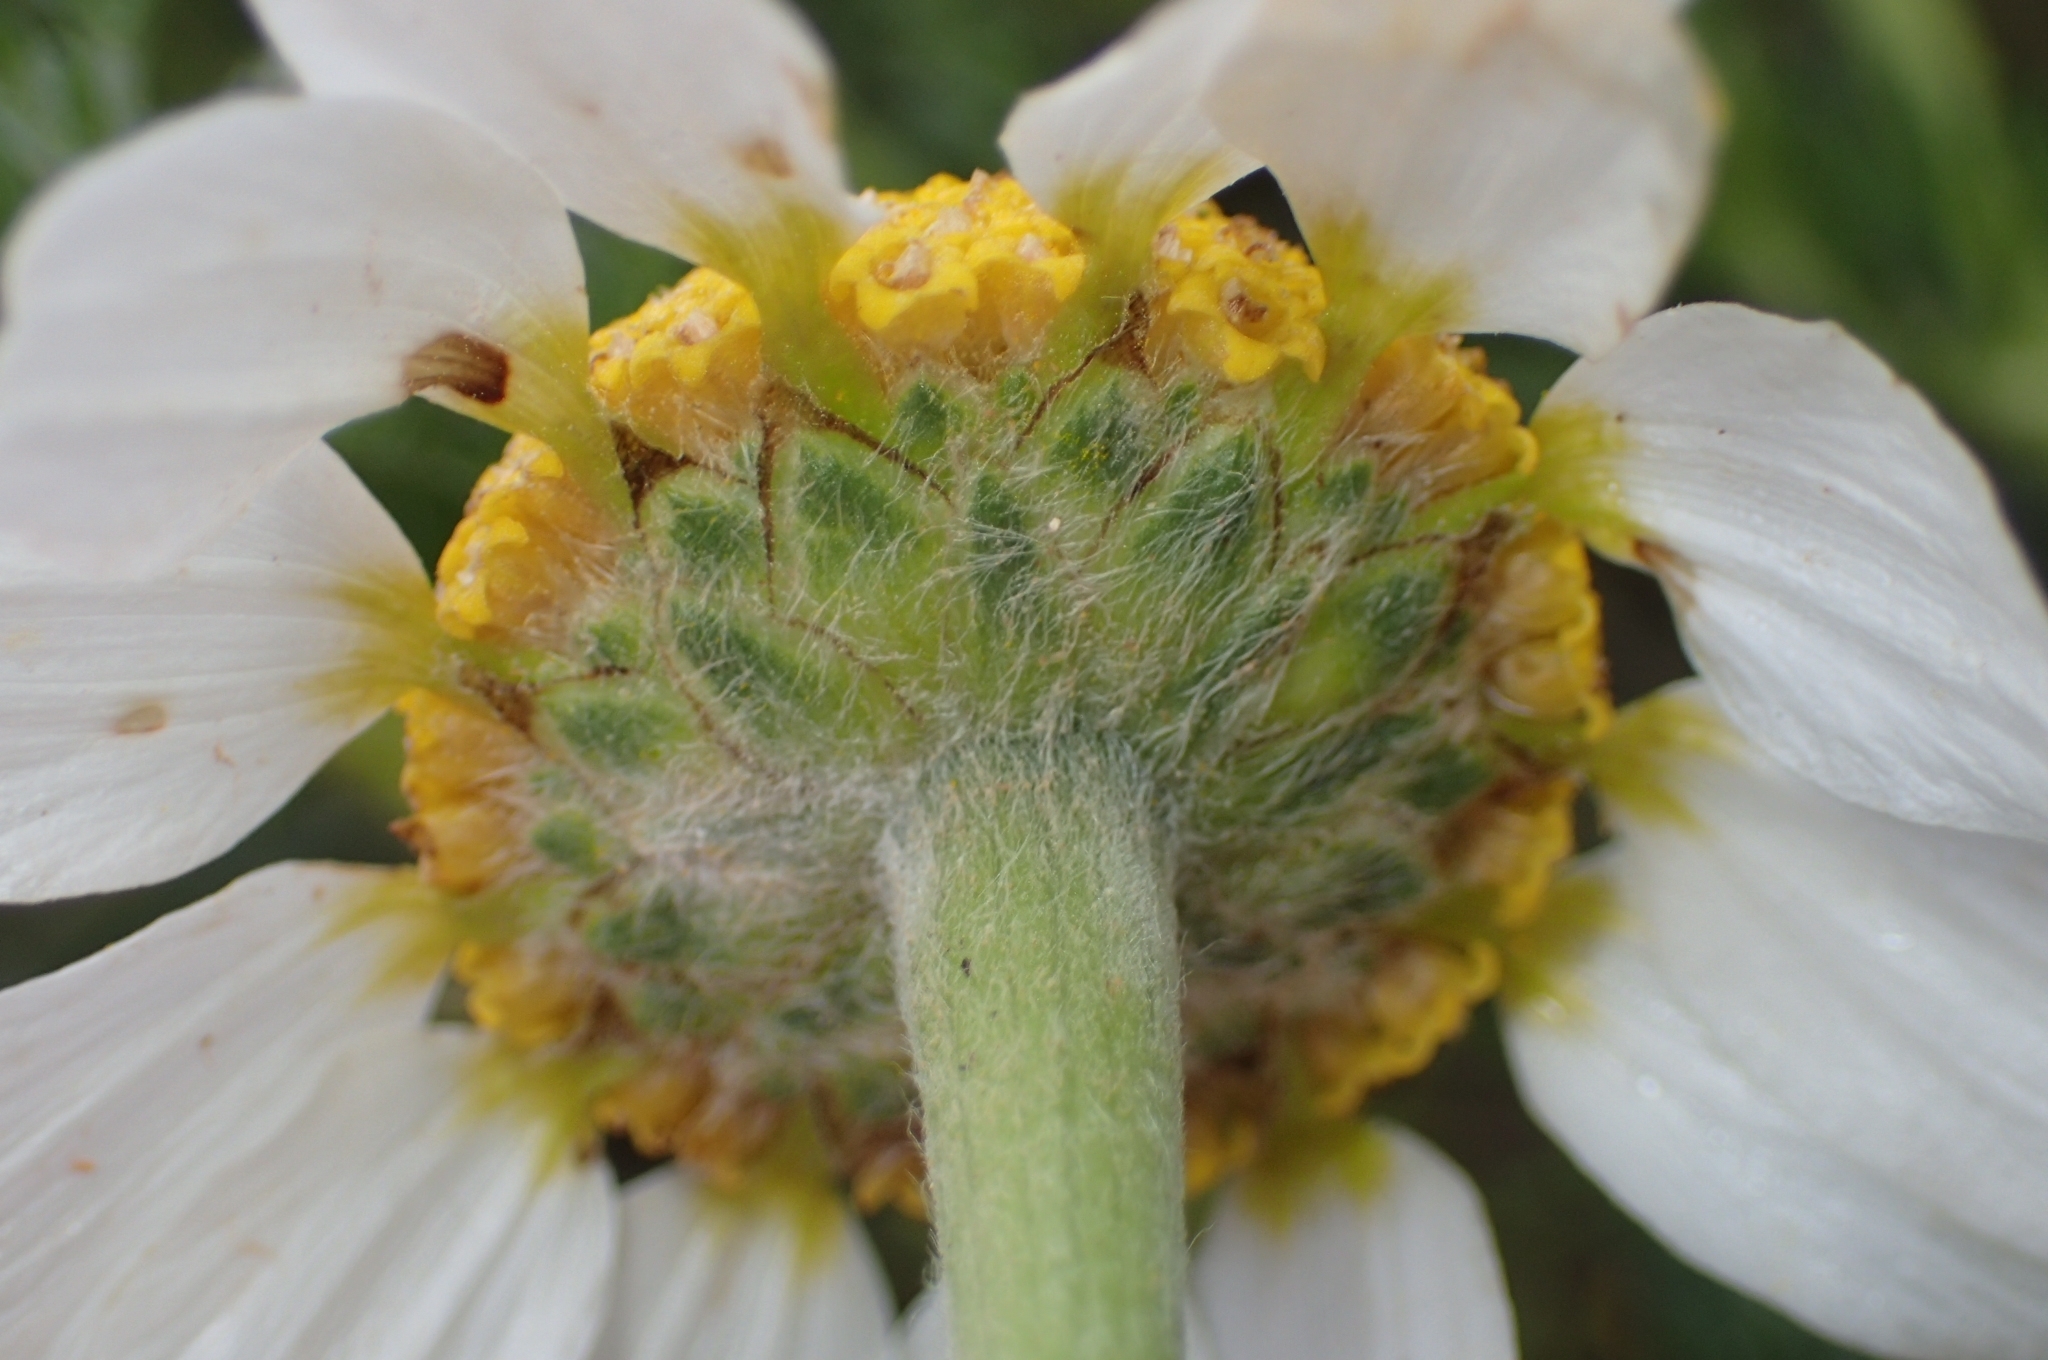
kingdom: Plantae
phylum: Tracheophyta
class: Magnoliopsida
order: Asterales
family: Asteraceae
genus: Anacyclus
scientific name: Anacyclus clavatus
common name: Whitebuttons
